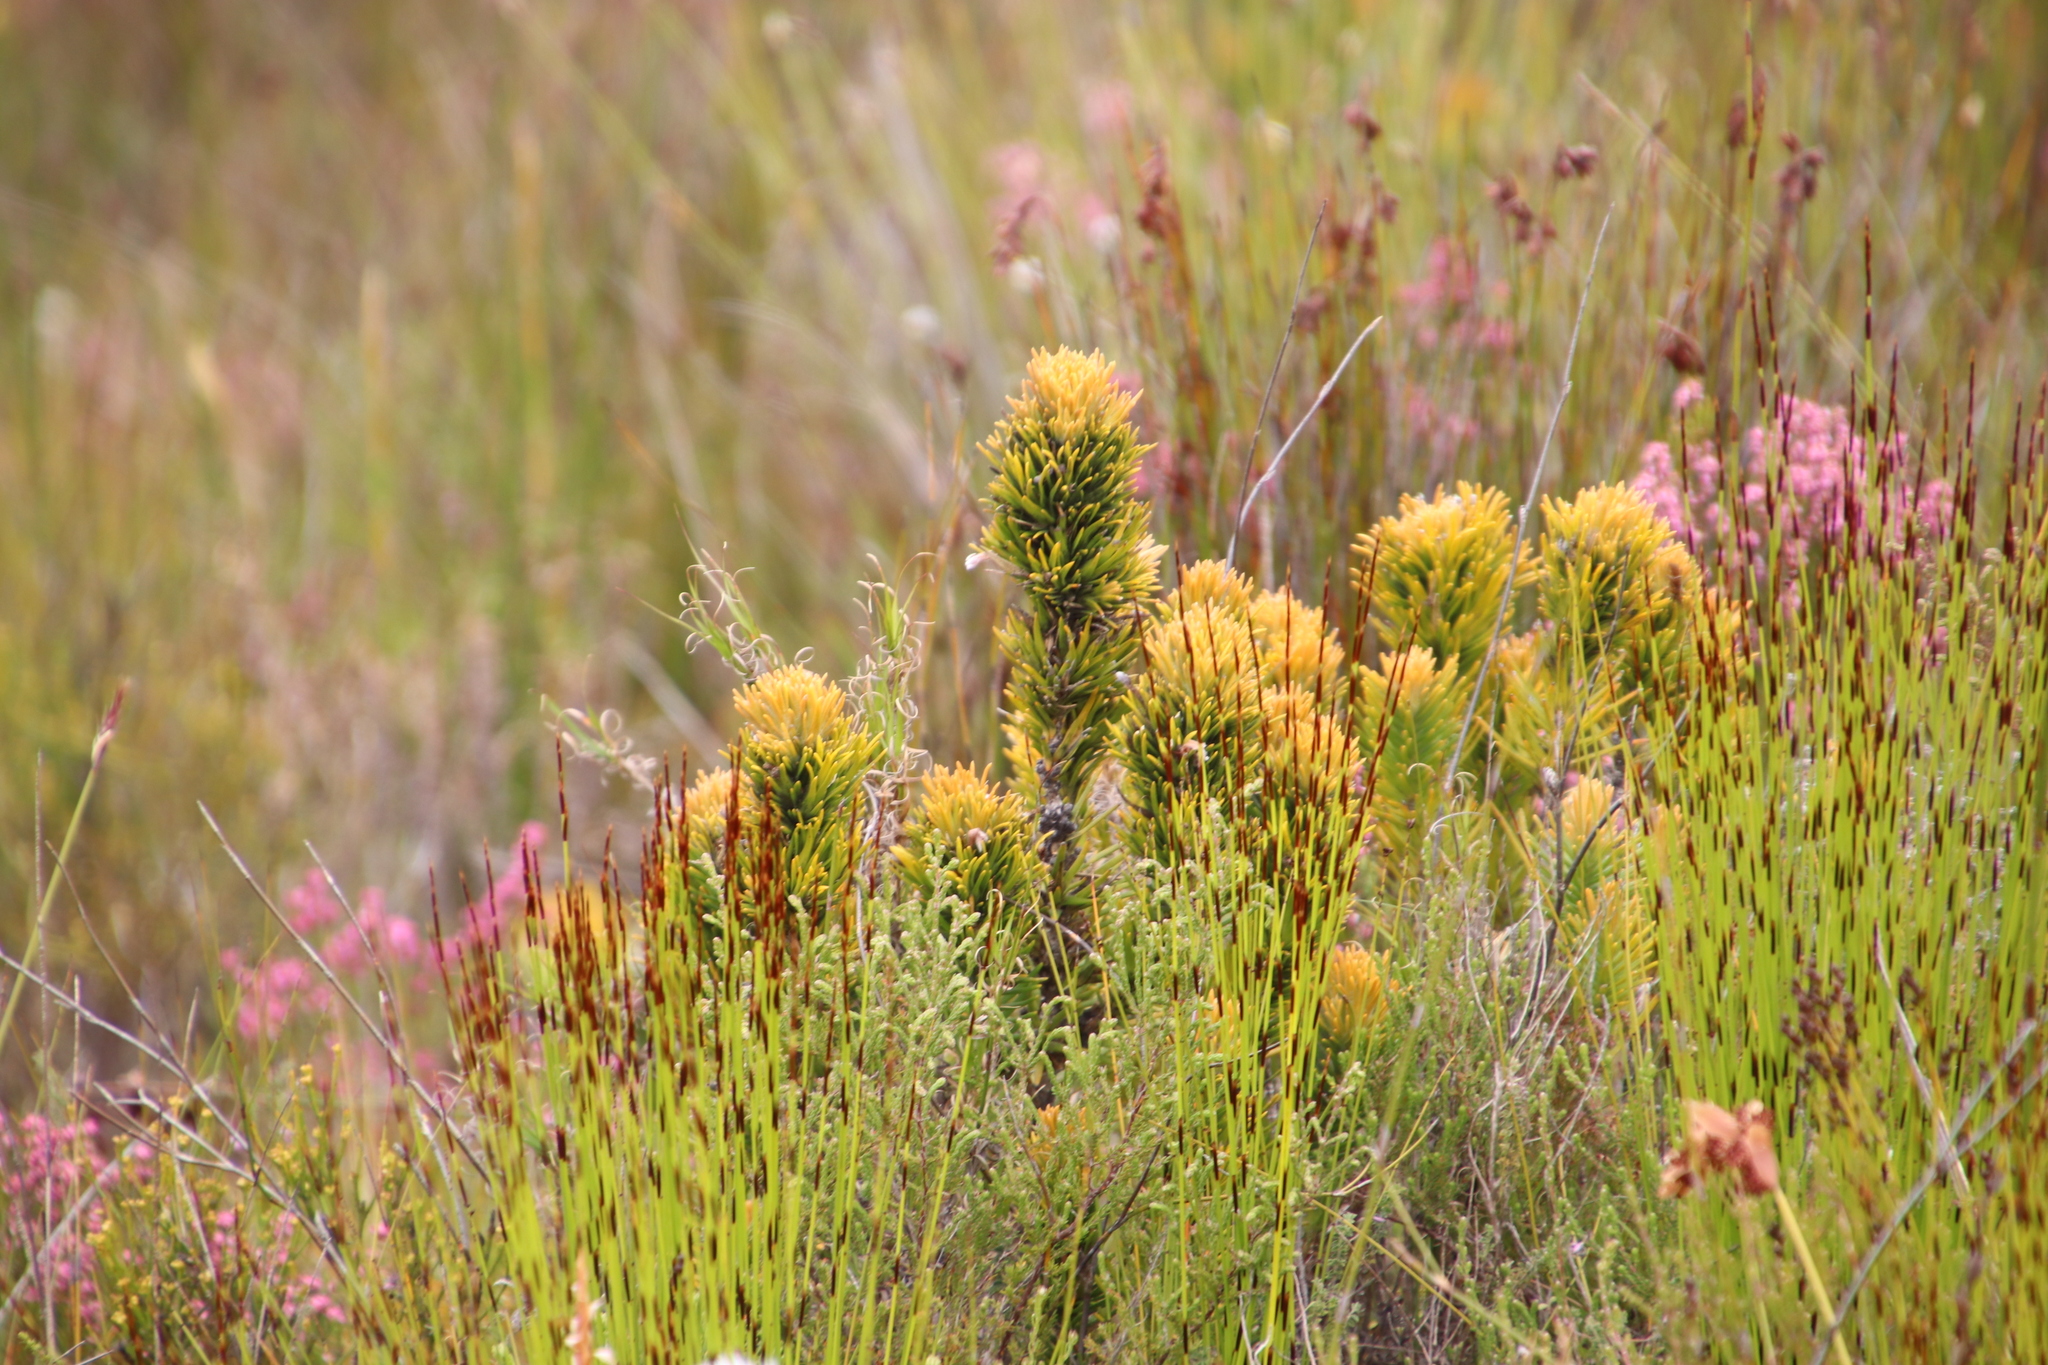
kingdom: Plantae
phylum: Tracheophyta
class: Magnoliopsida
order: Lamiales
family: Stilbaceae
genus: Retzia
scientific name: Retzia capensis
